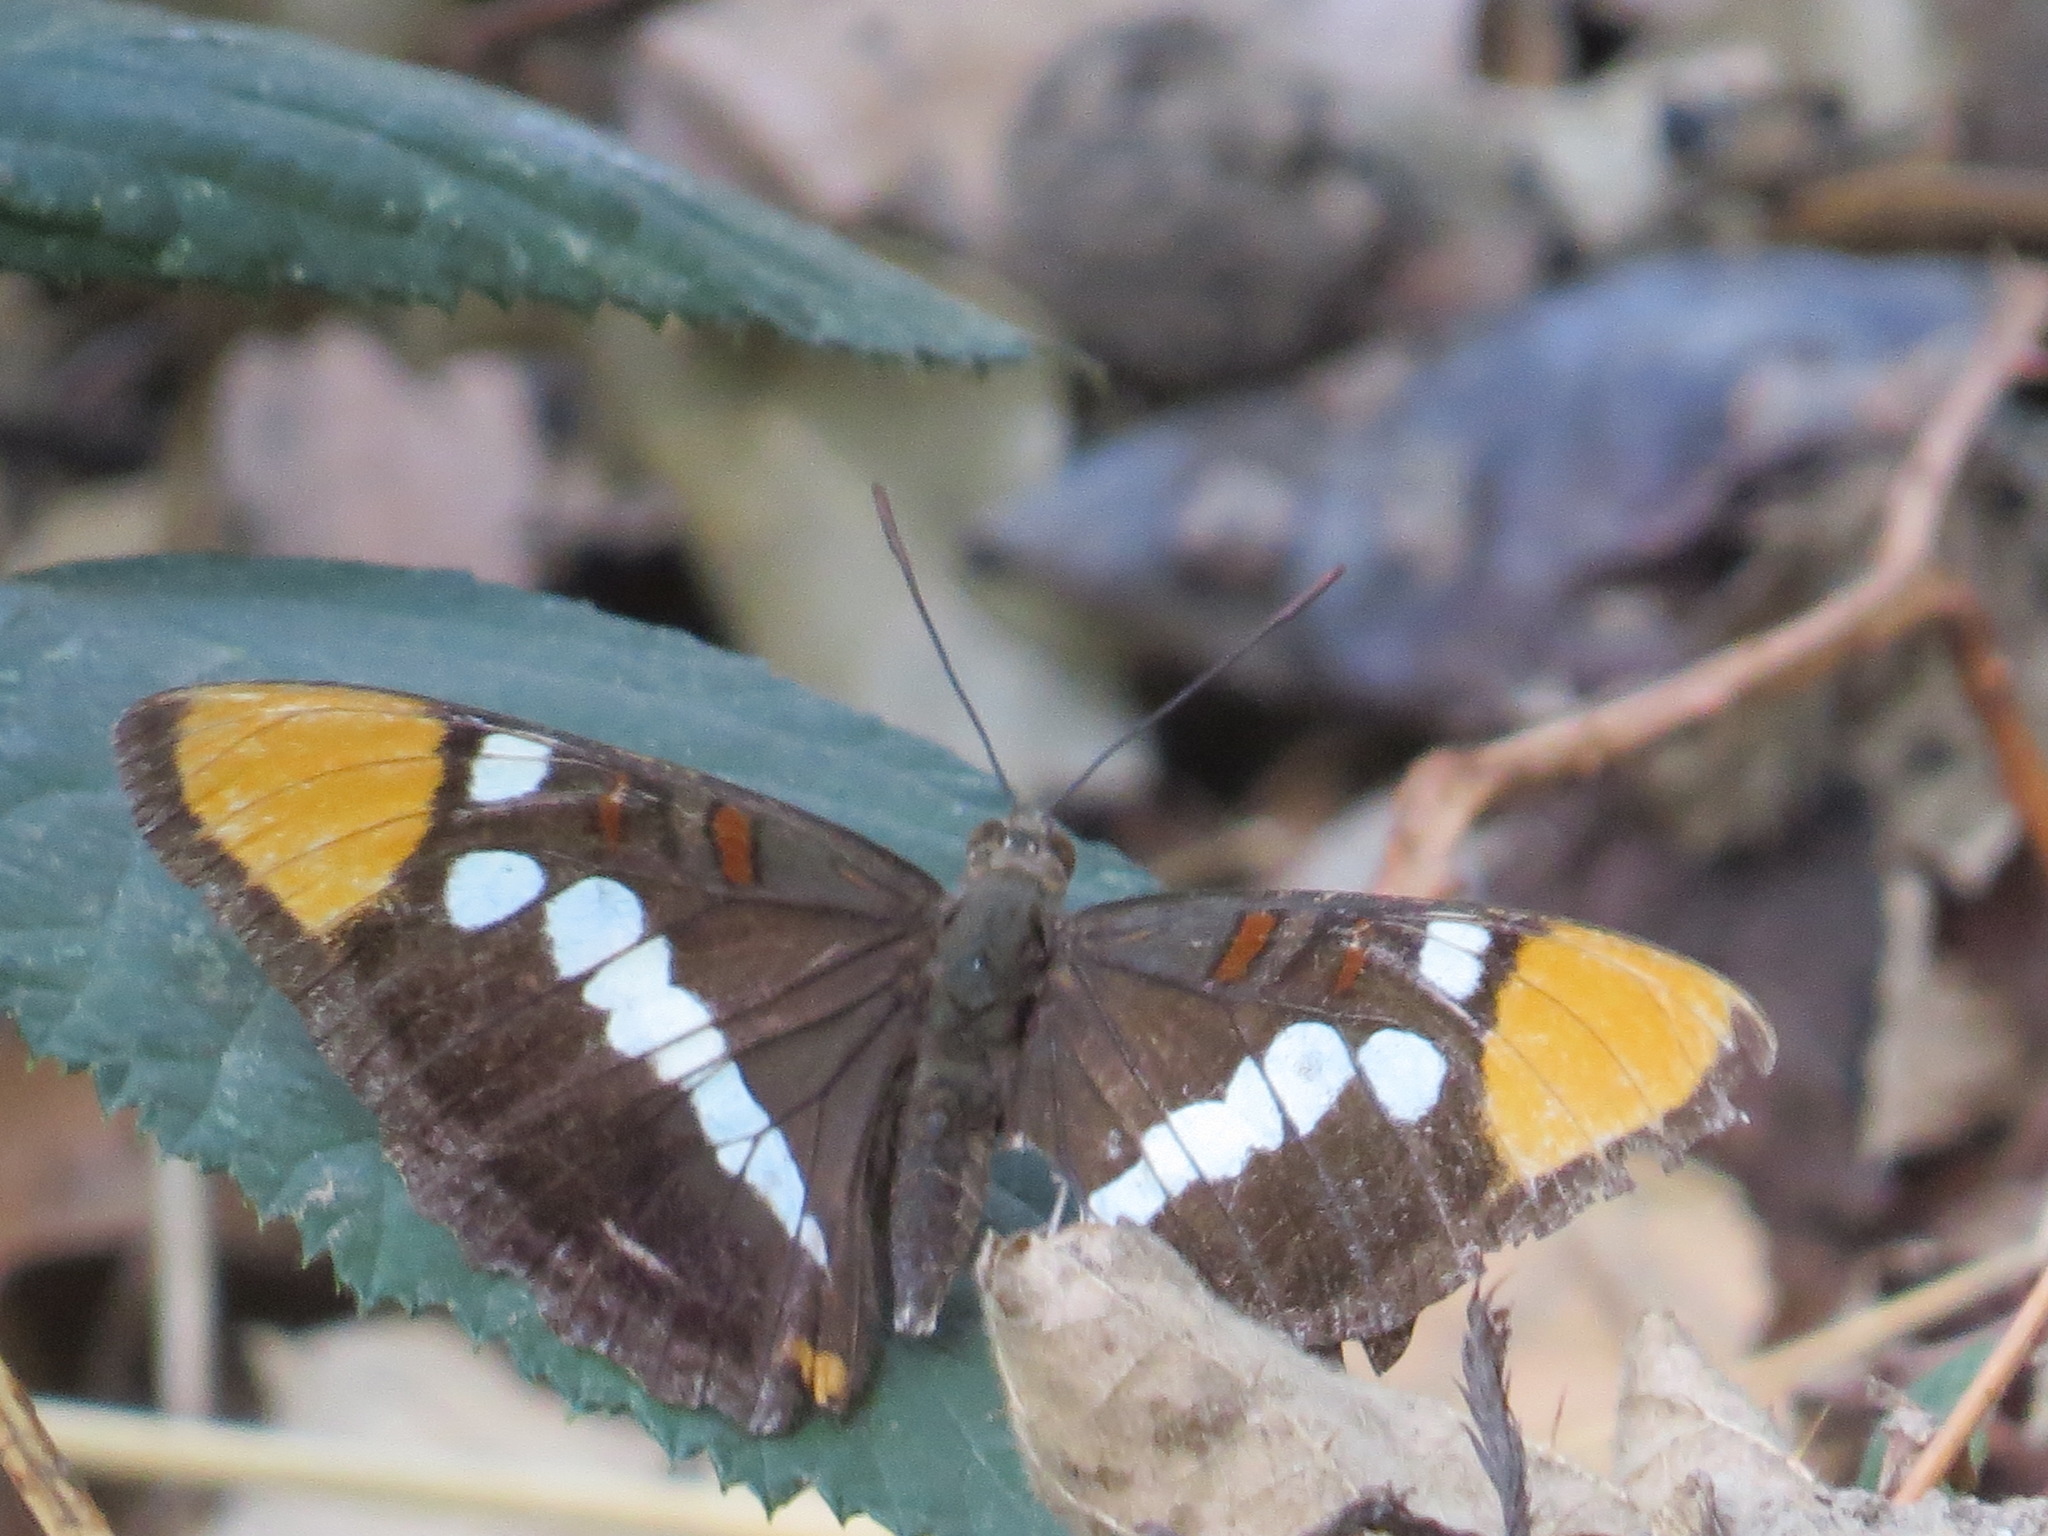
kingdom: Animalia
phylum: Arthropoda
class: Insecta
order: Lepidoptera
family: Nymphalidae
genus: Limenitis
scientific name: Limenitis bredowii
